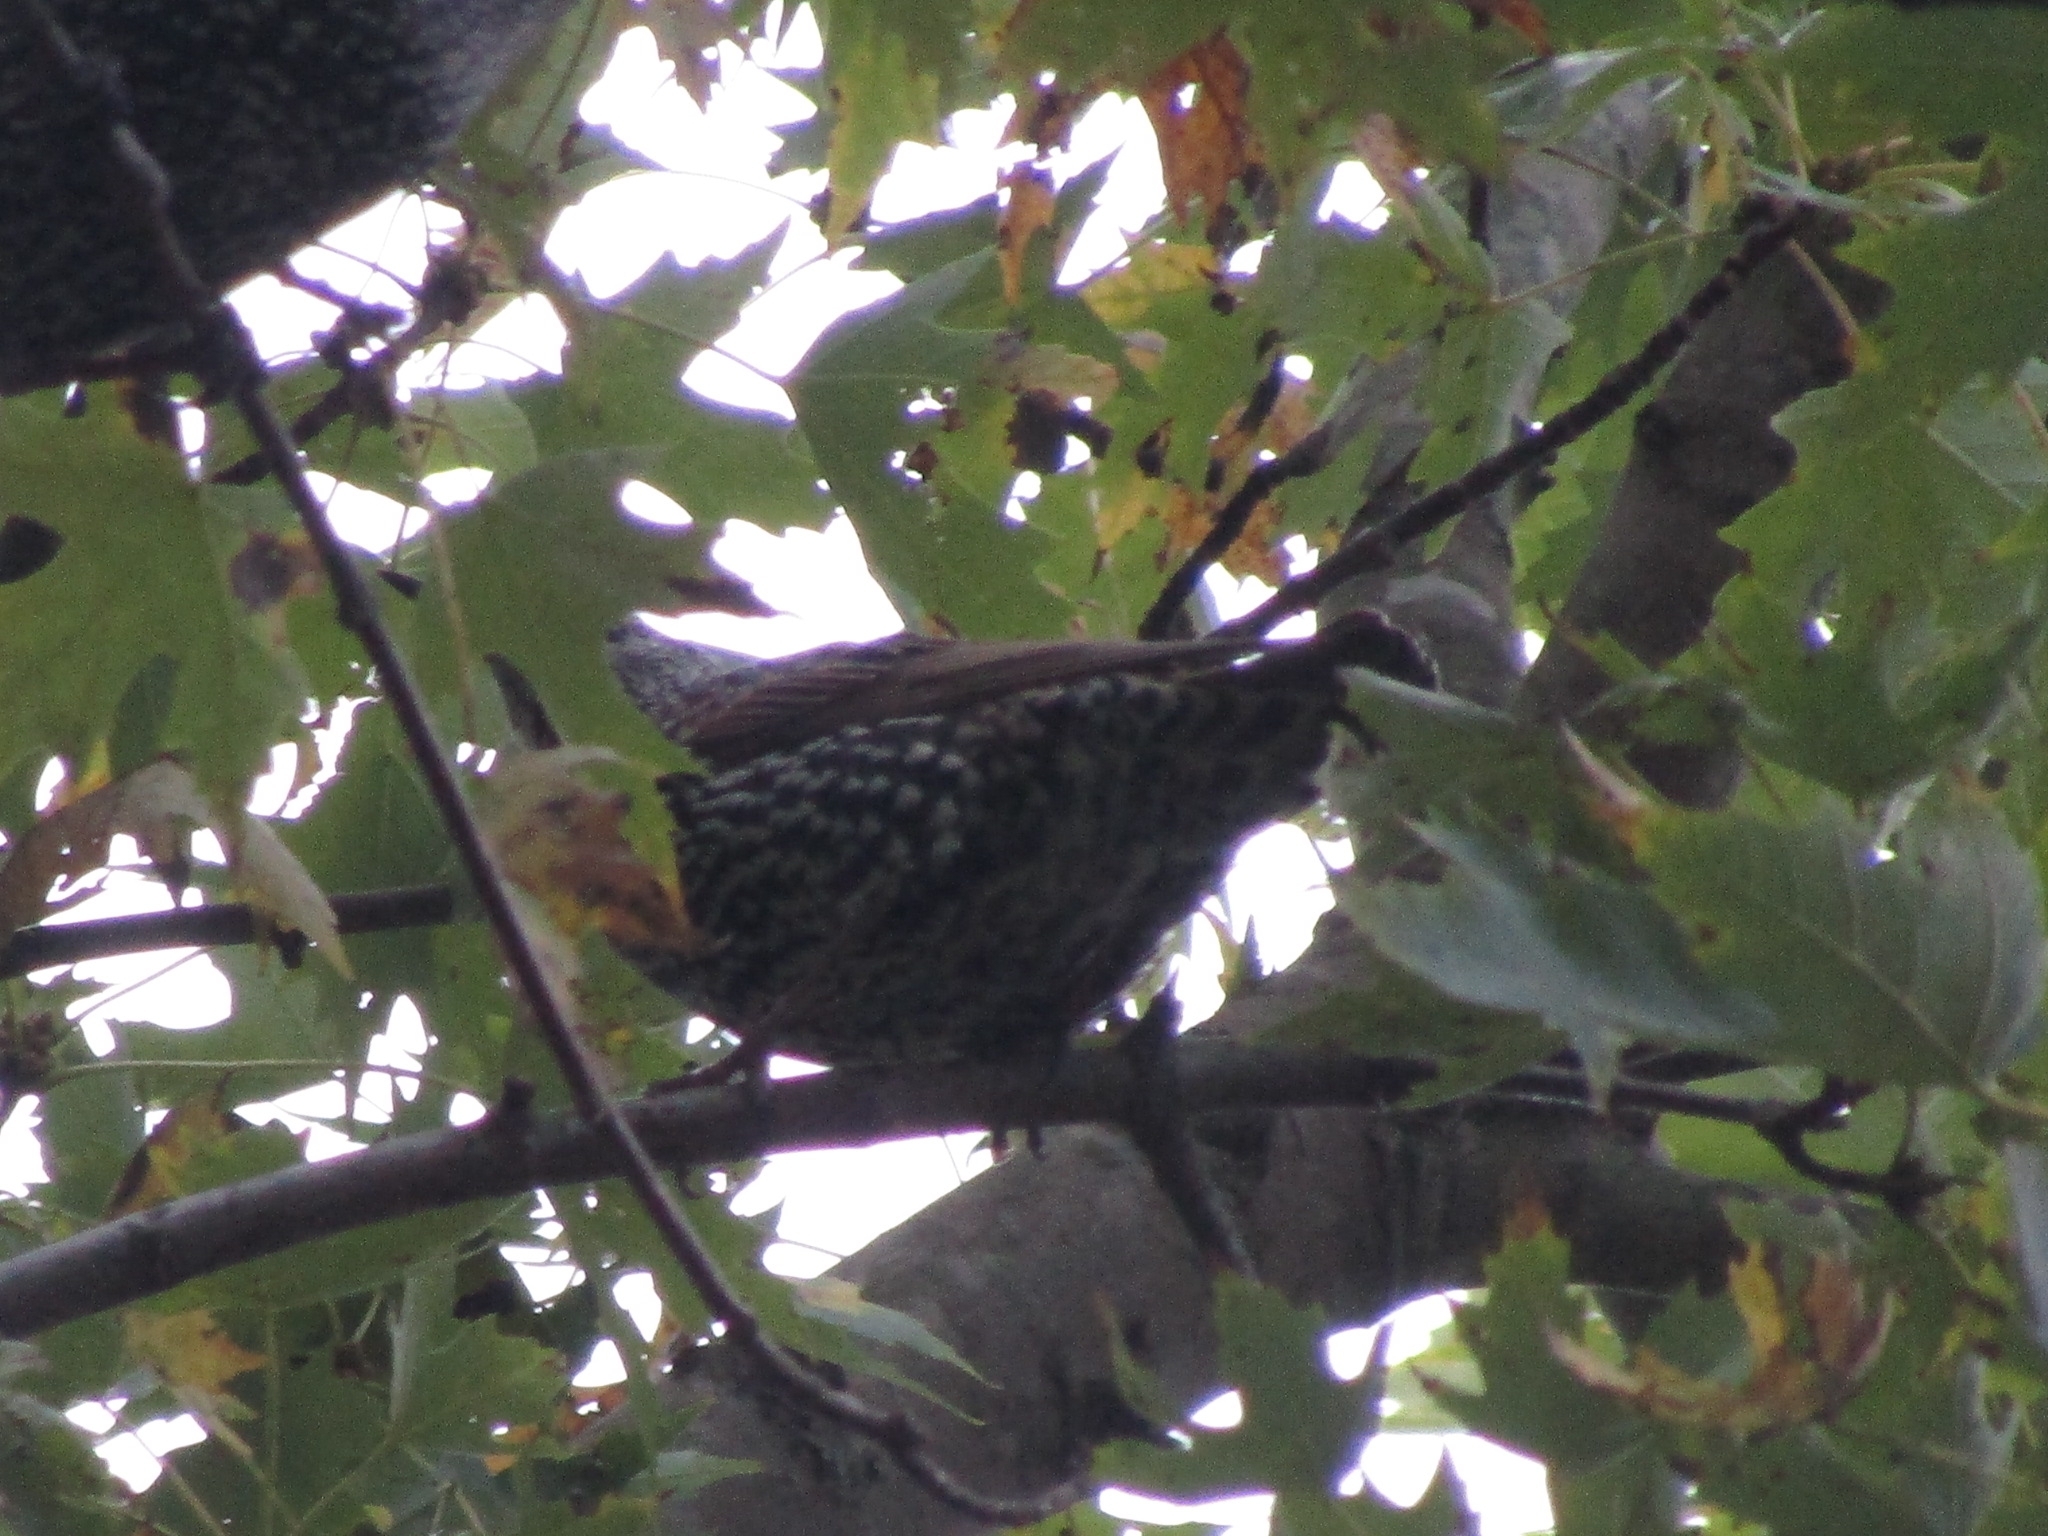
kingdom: Animalia
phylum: Chordata
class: Aves
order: Passeriformes
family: Sturnidae
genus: Sturnus
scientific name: Sturnus vulgaris
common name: Common starling
